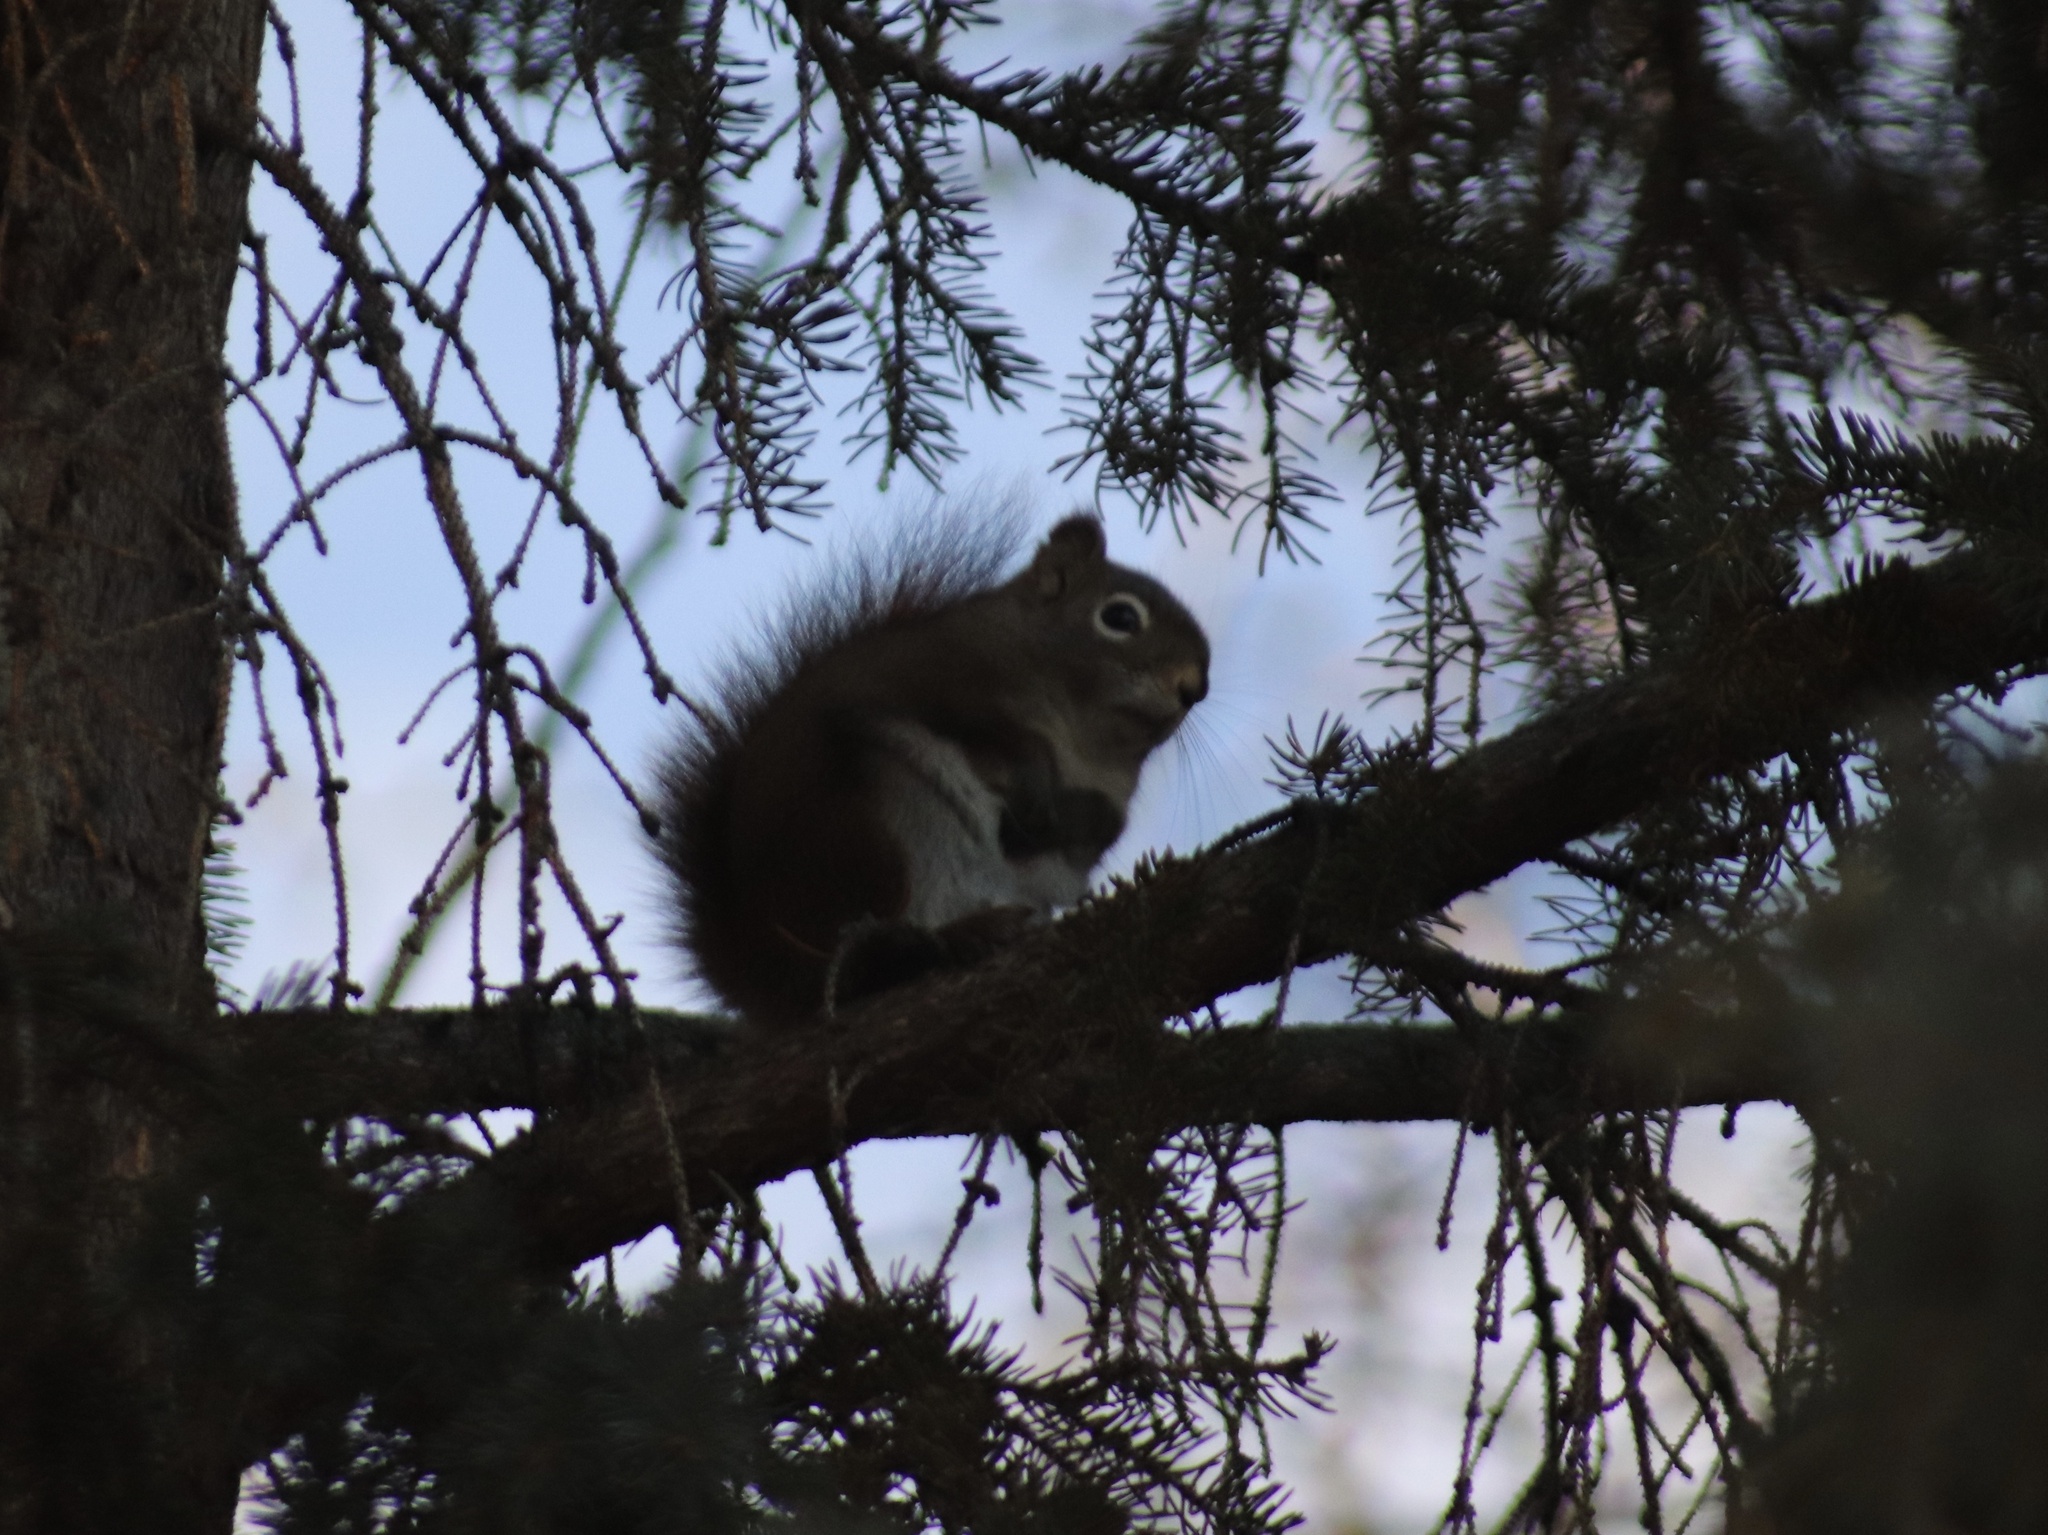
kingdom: Animalia
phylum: Chordata
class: Mammalia
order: Rodentia
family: Sciuridae
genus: Tamiasciurus
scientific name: Tamiasciurus hudsonicus
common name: Red squirrel
